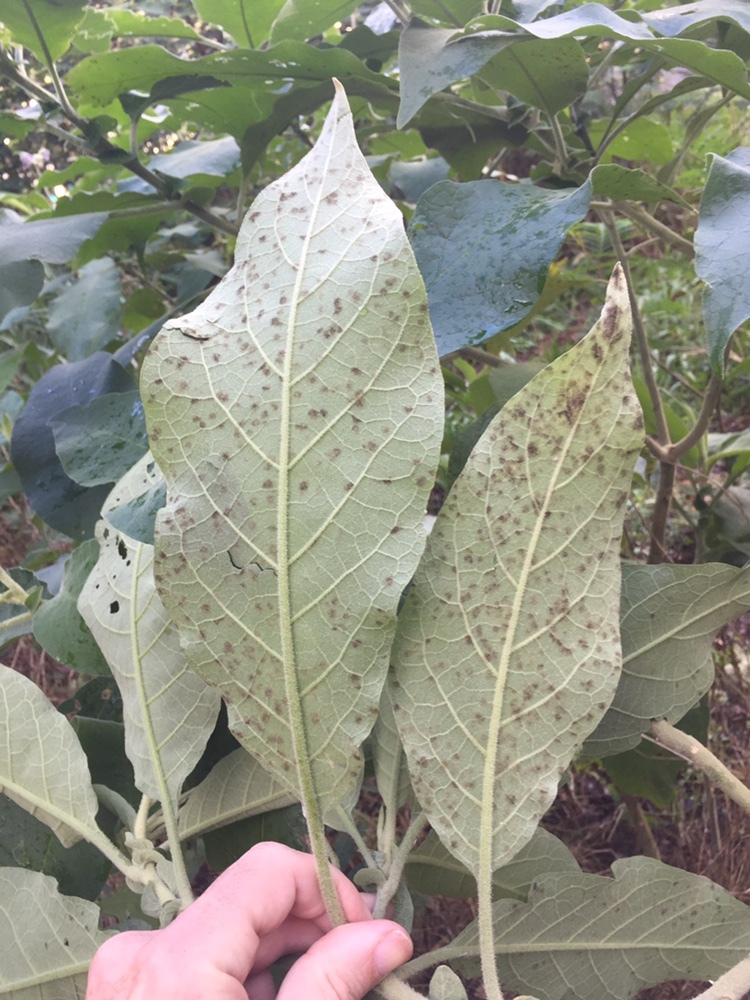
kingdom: Plantae
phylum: Tracheophyta
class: Magnoliopsida
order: Solanales
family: Solanaceae
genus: Solanum
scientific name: Solanum mauritianum
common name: Earleaf nightshade
